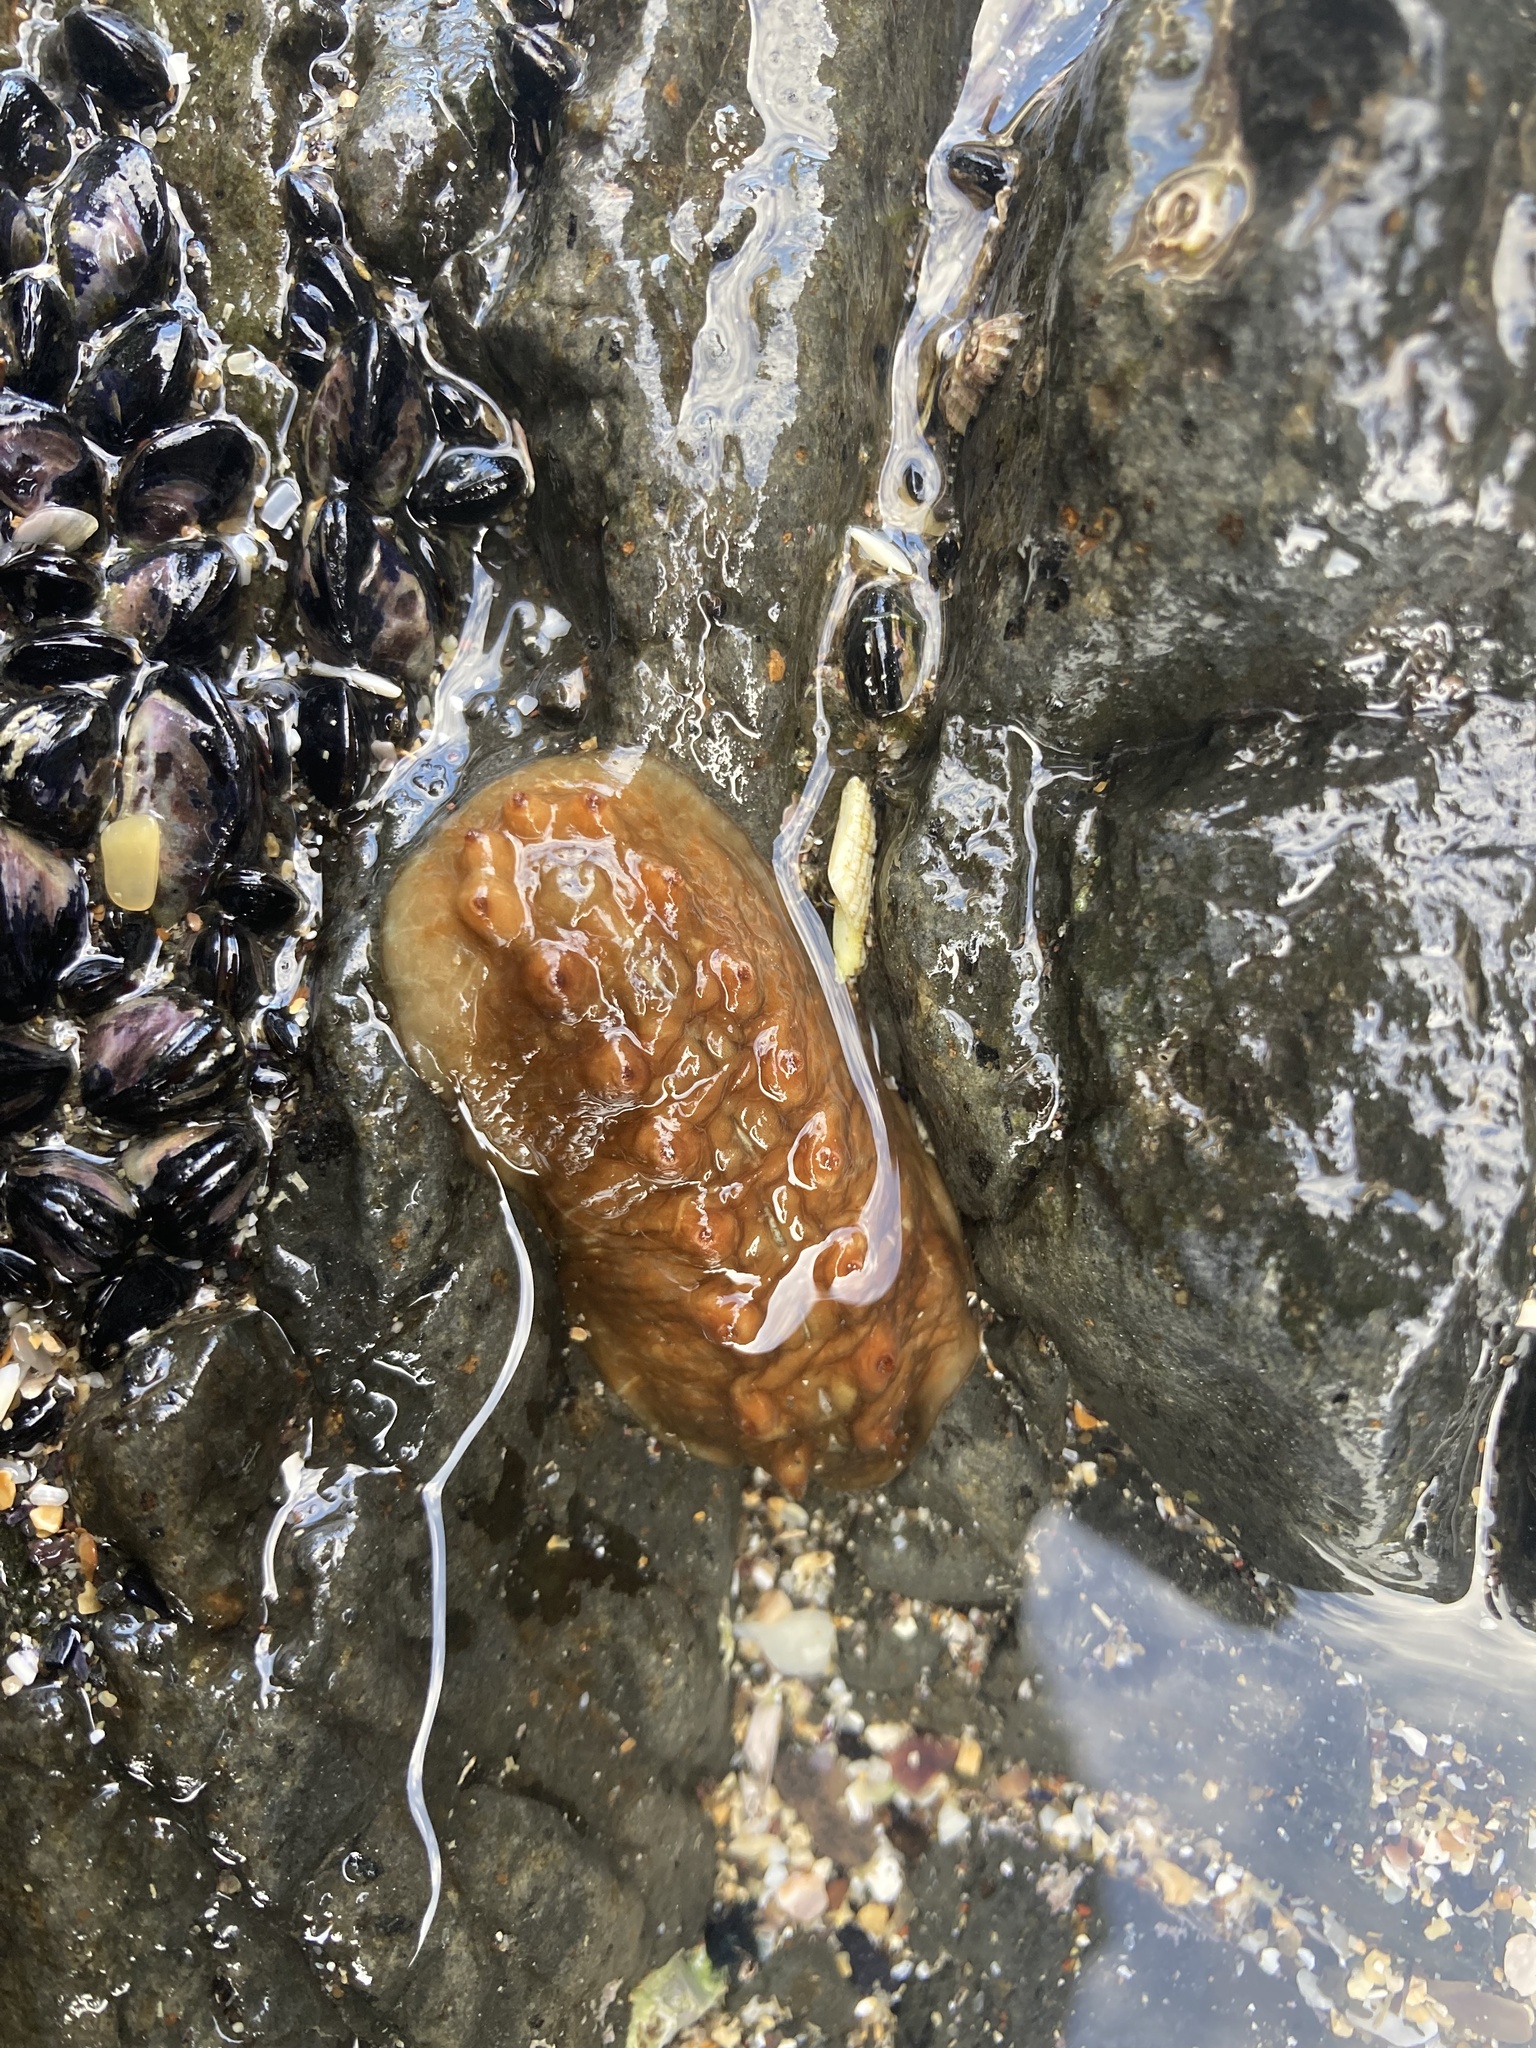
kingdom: Animalia
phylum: Mollusca
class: Polyplacophora
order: Chitonida
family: Acanthochitonidae
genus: Cryptoconchus
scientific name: Cryptoconchus porosus
